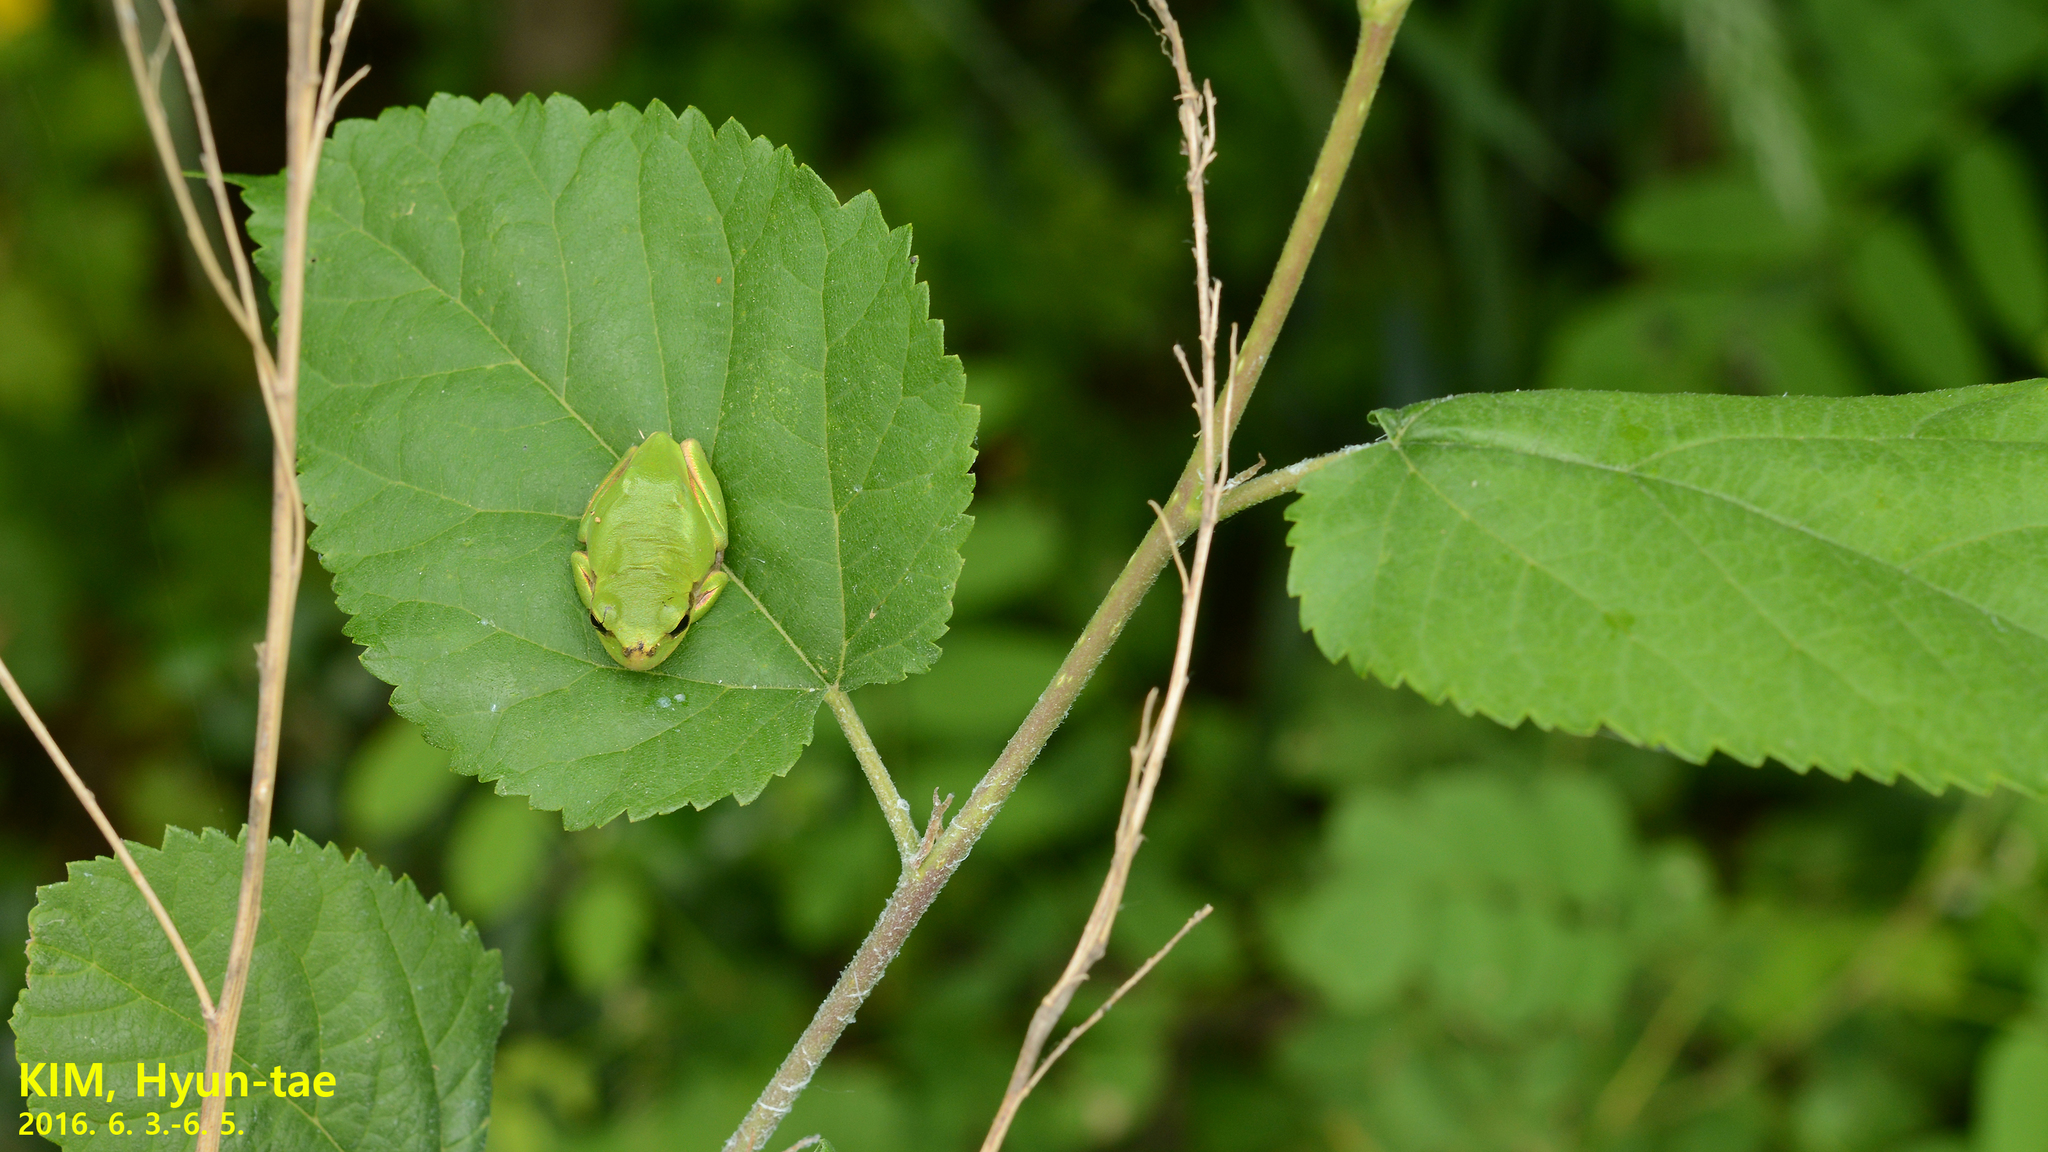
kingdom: Animalia
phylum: Chordata
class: Amphibia
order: Anura
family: Hylidae
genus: Dryophytes
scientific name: Dryophytes japonicus
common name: Japanese treefrog
